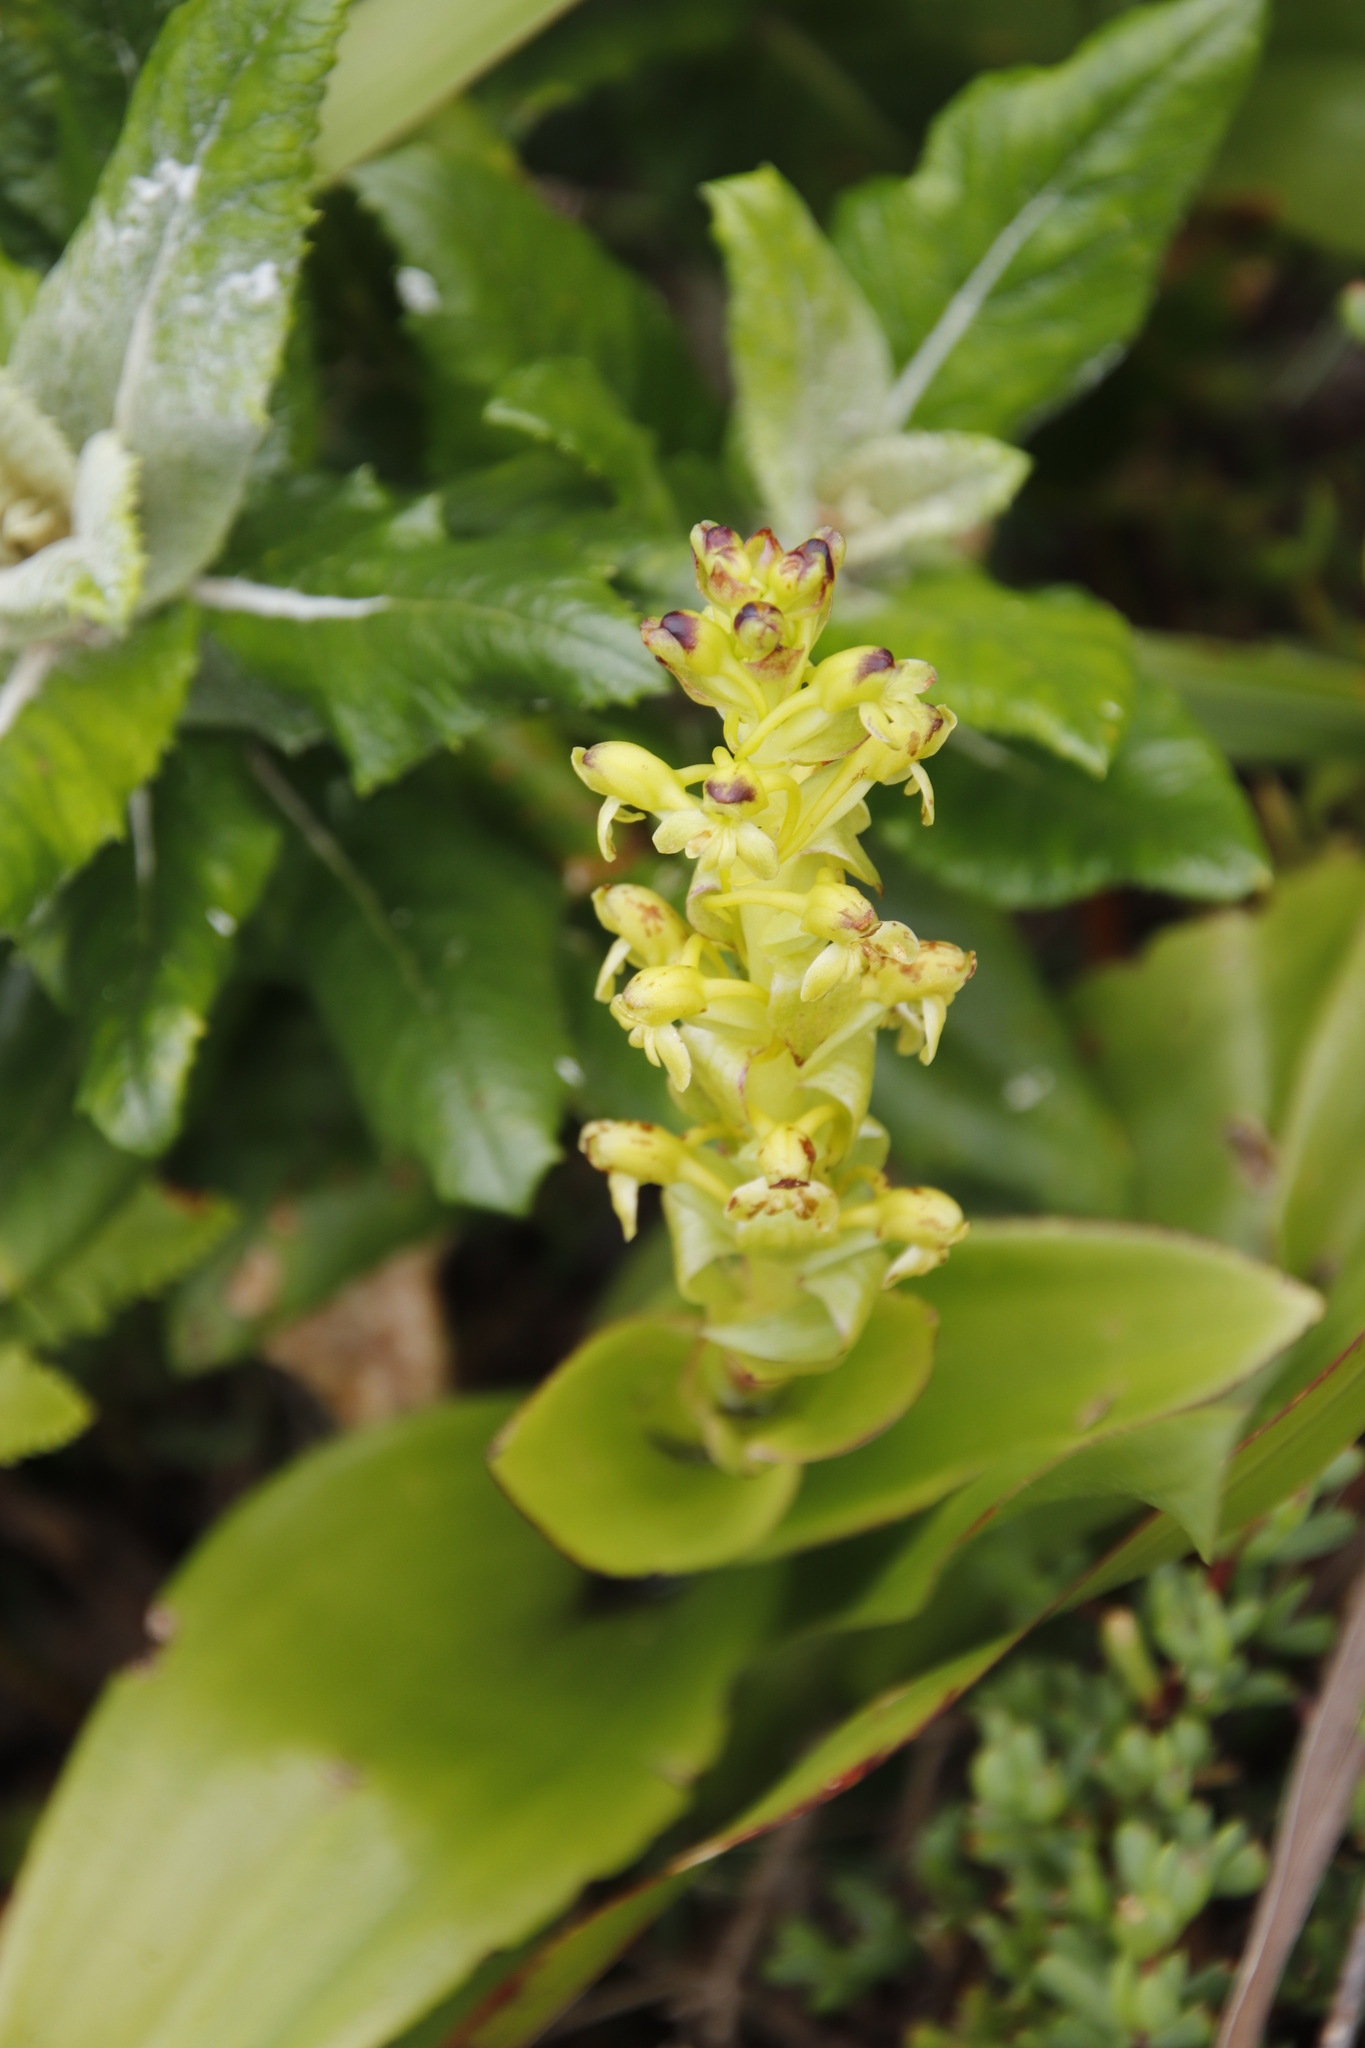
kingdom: Plantae
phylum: Tracheophyta
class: Liliopsida
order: Asparagales
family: Orchidaceae
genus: Satyrium
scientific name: Satyrium odorum
